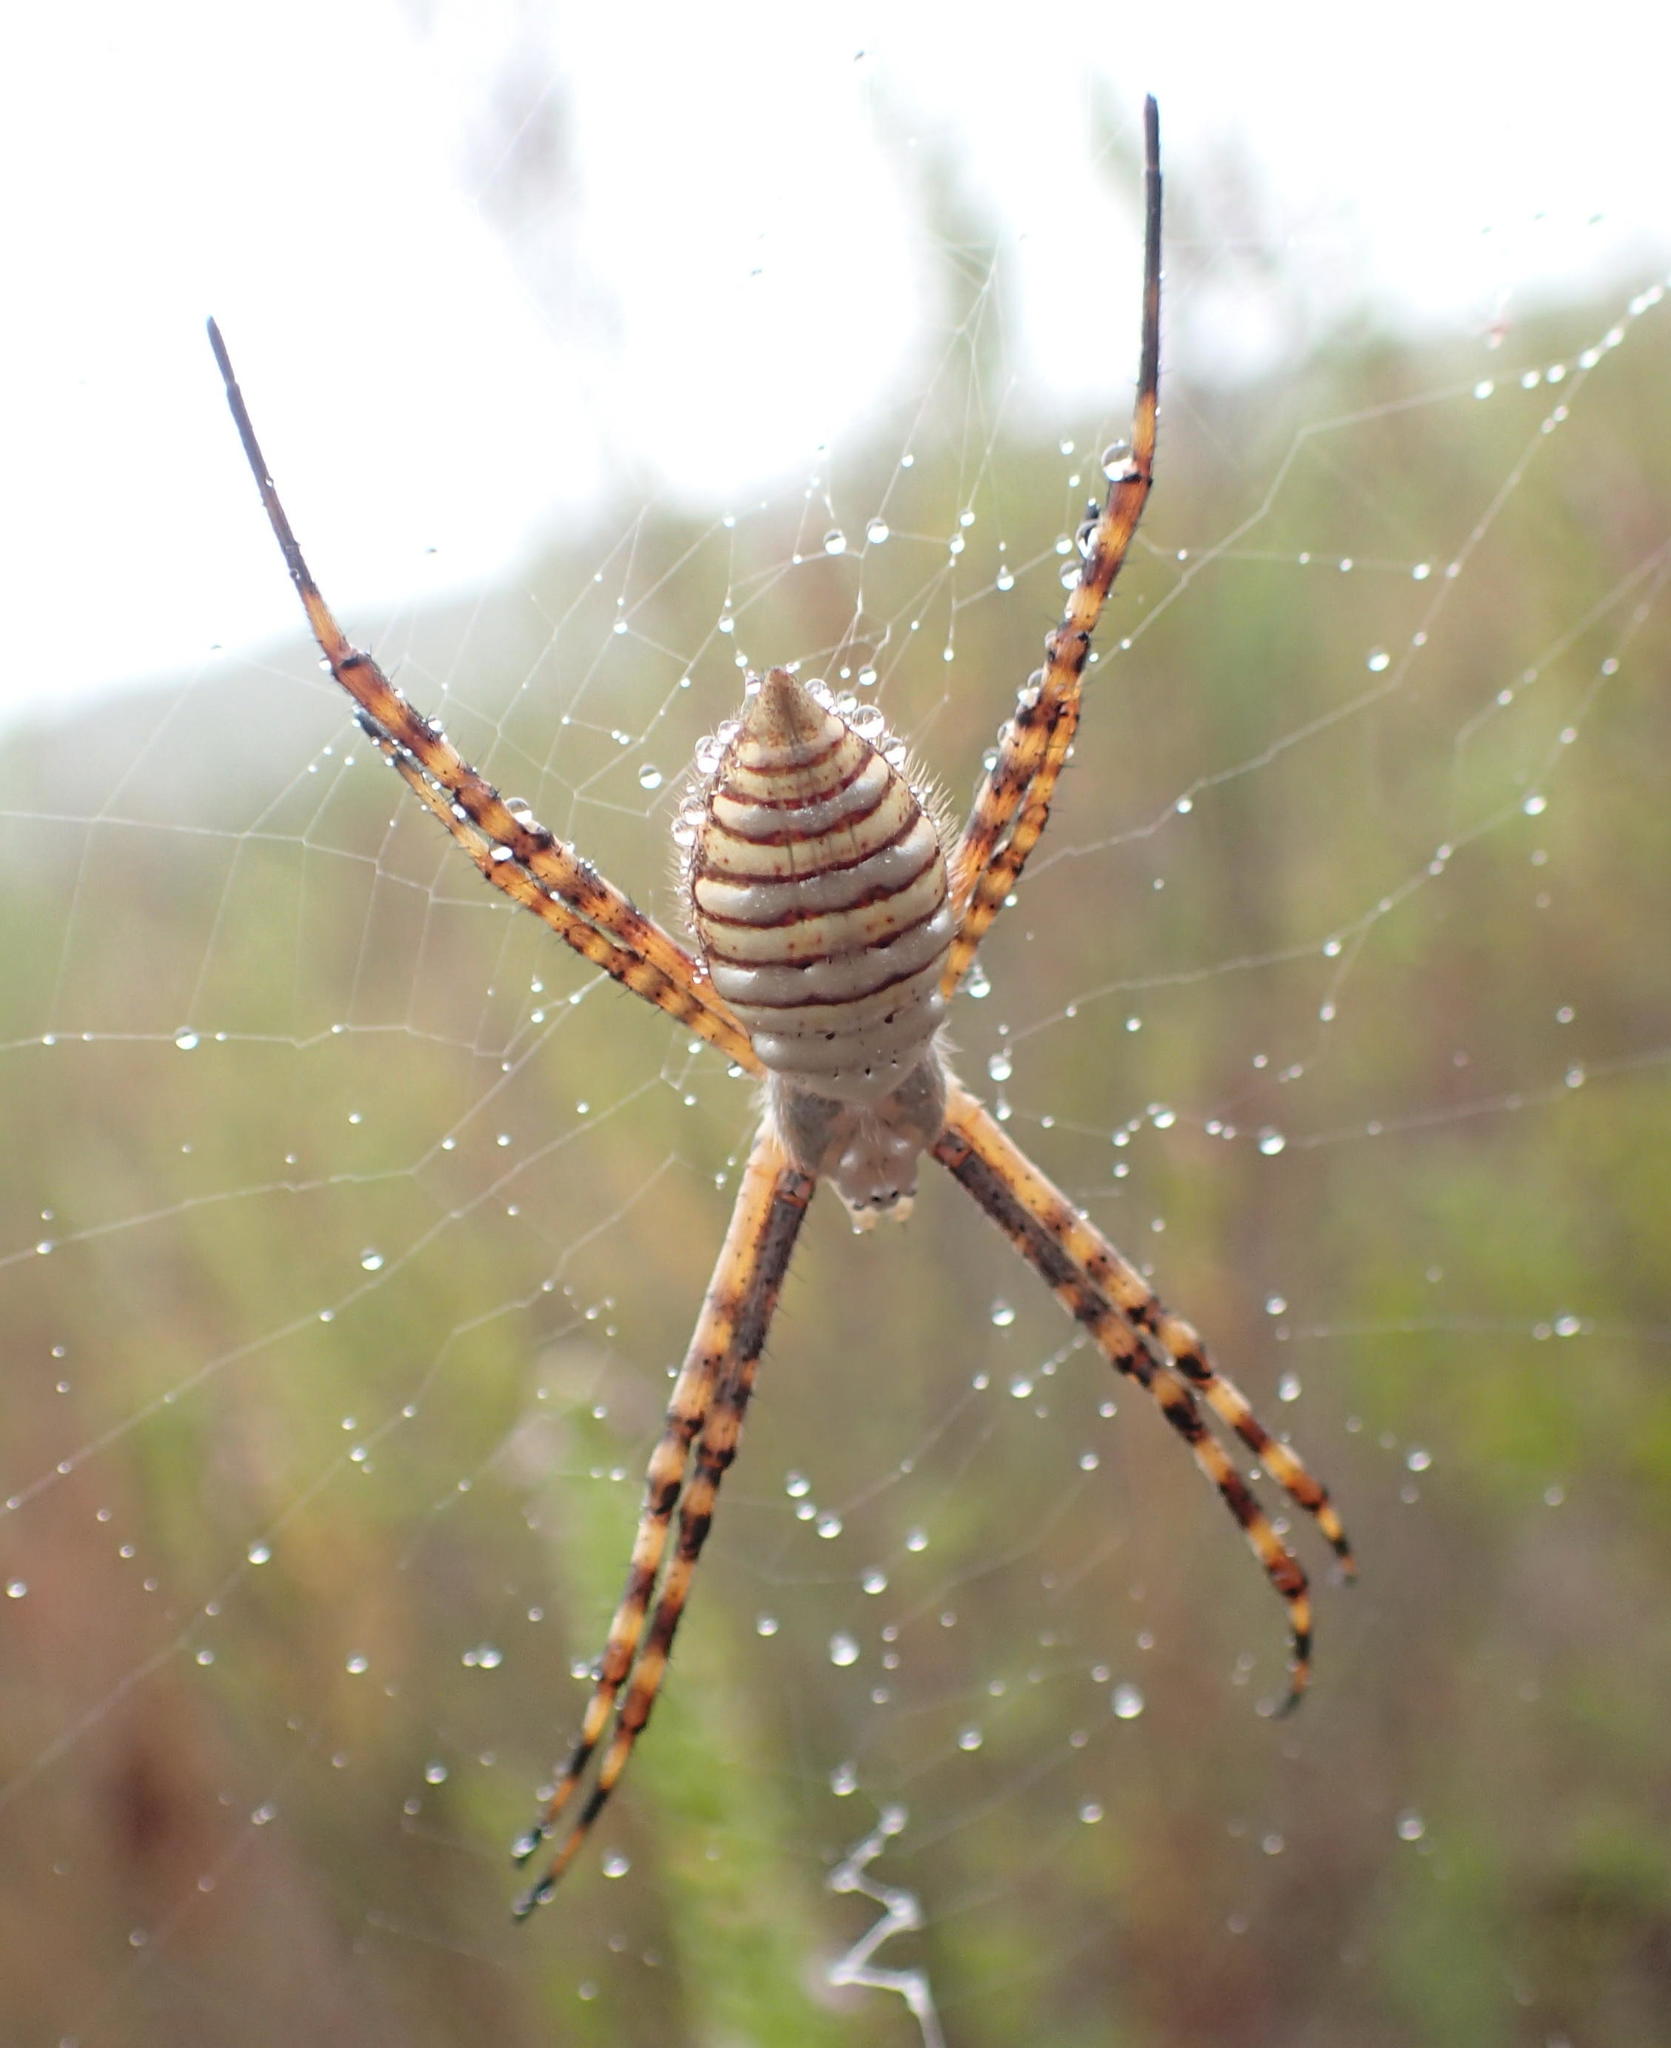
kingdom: Animalia
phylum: Arthropoda
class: Arachnida
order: Araneae
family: Araneidae
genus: Argiope
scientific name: Argiope trifasciata
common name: Banded garden spider
